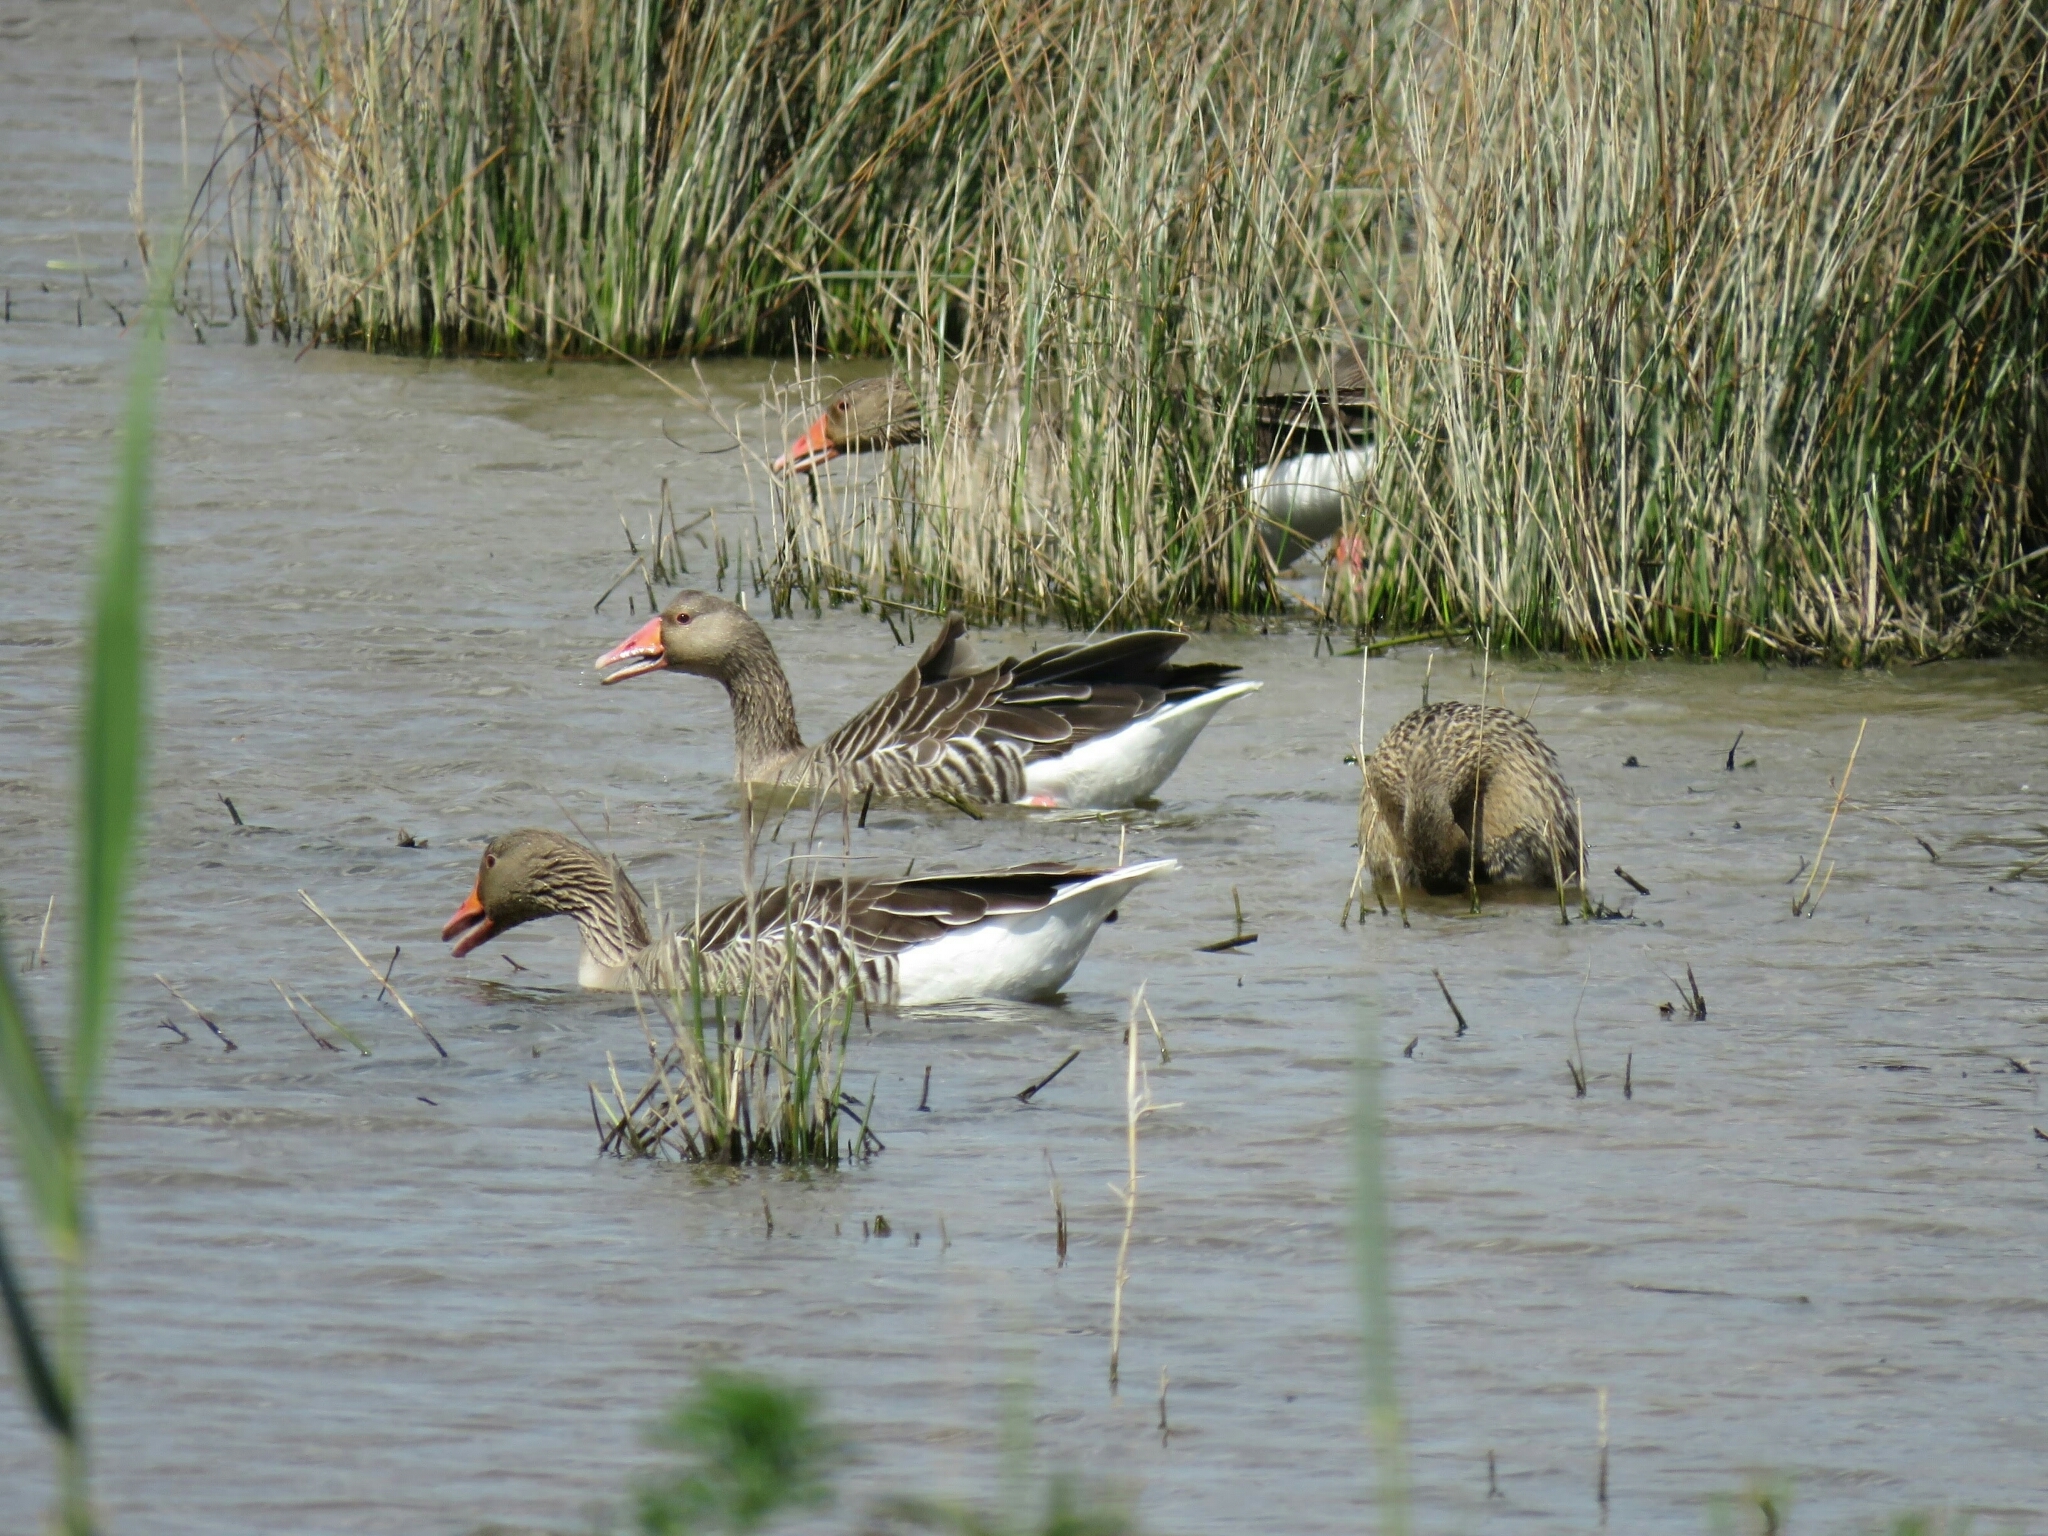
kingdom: Animalia
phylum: Chordata
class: Aves
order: Anseriformes
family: Anatidae
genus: Anser
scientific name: Anser anser
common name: Greylag goose
